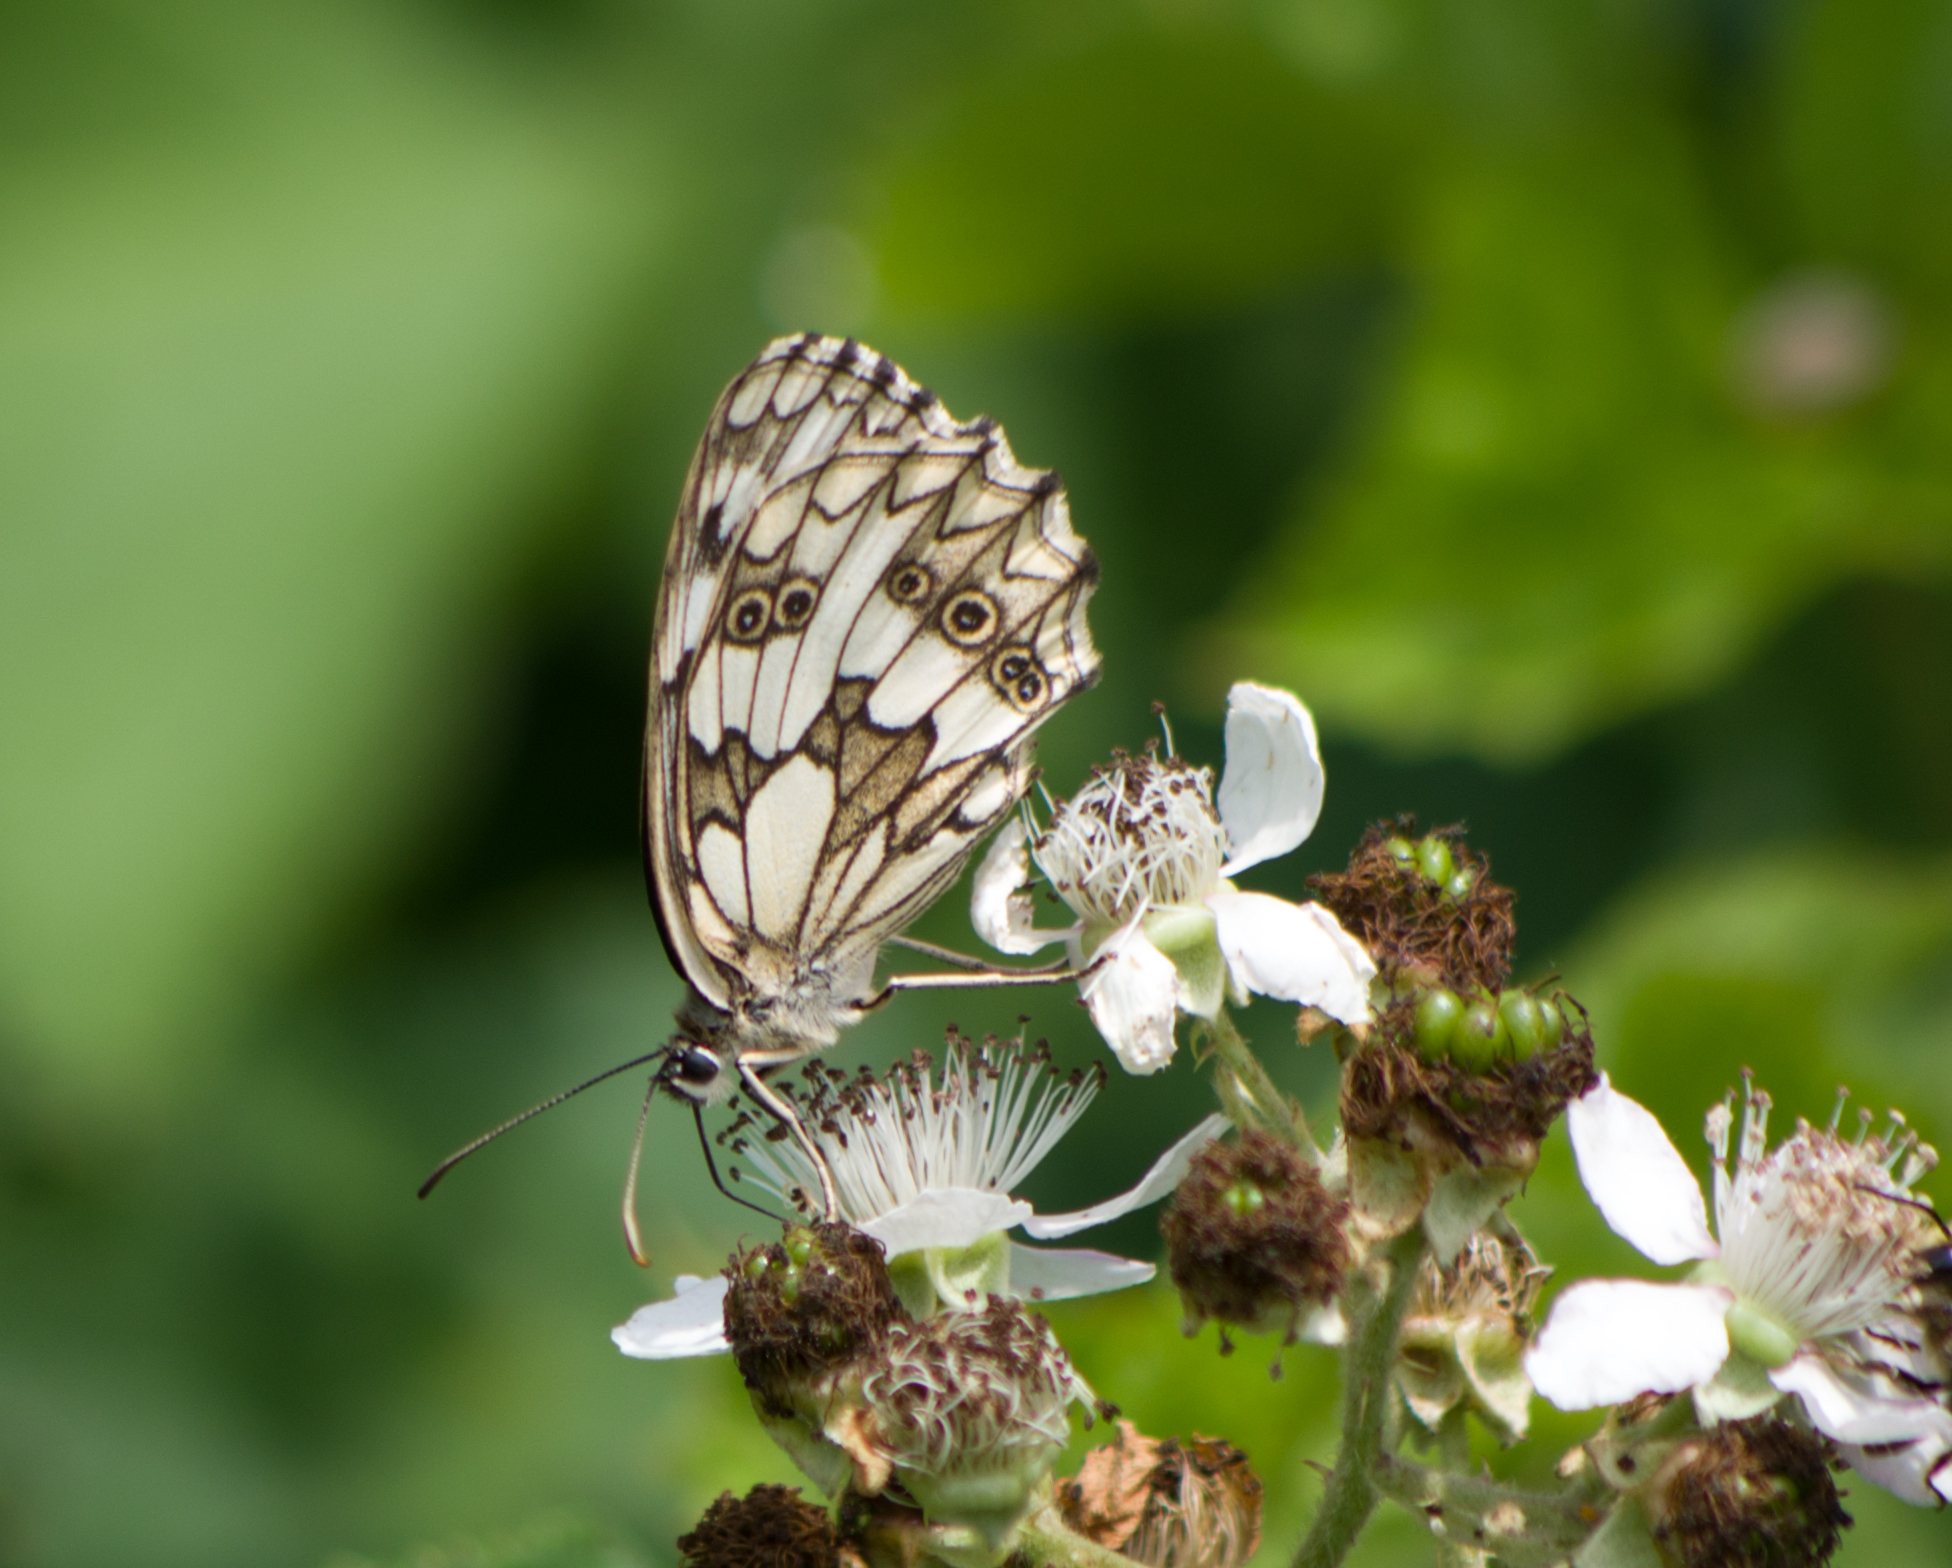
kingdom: Animalia
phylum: Arthropoda
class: Insecta
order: Lepidoptera
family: Nymphalidae
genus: Melanargia
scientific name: Melanargia galathea
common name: Marbled white
